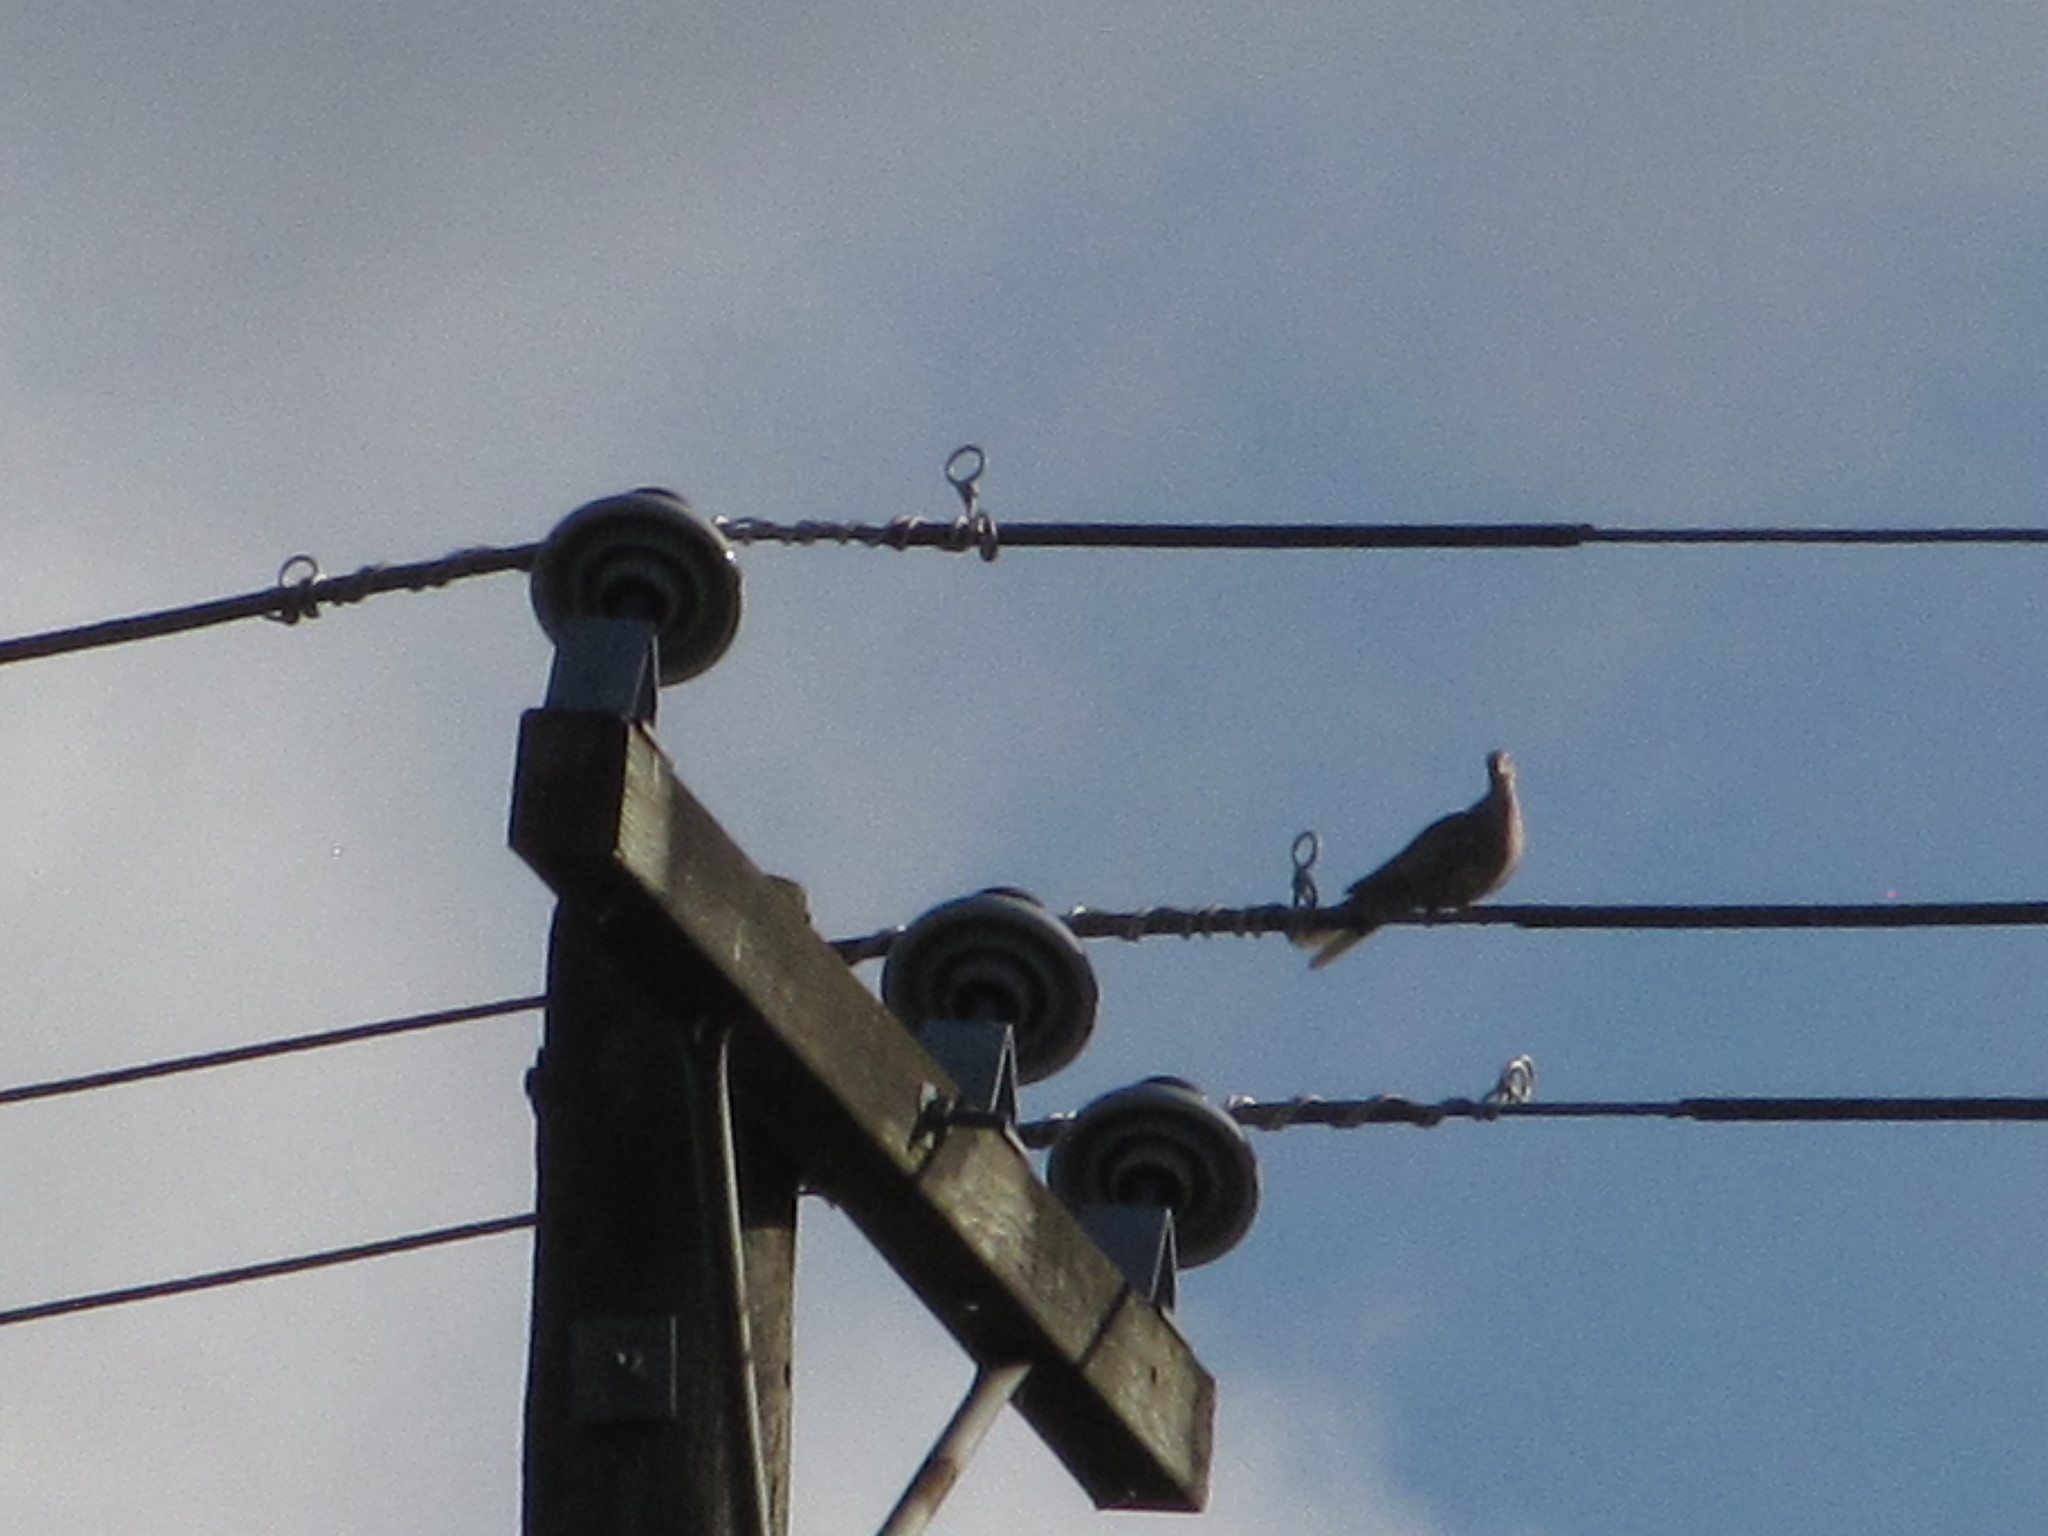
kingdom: Animalia
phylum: Chordata
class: Aves
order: Columbiformes
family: Columbidae
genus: Streptopelia
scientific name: Streptopelia decaocto
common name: Eurasian collared dove
